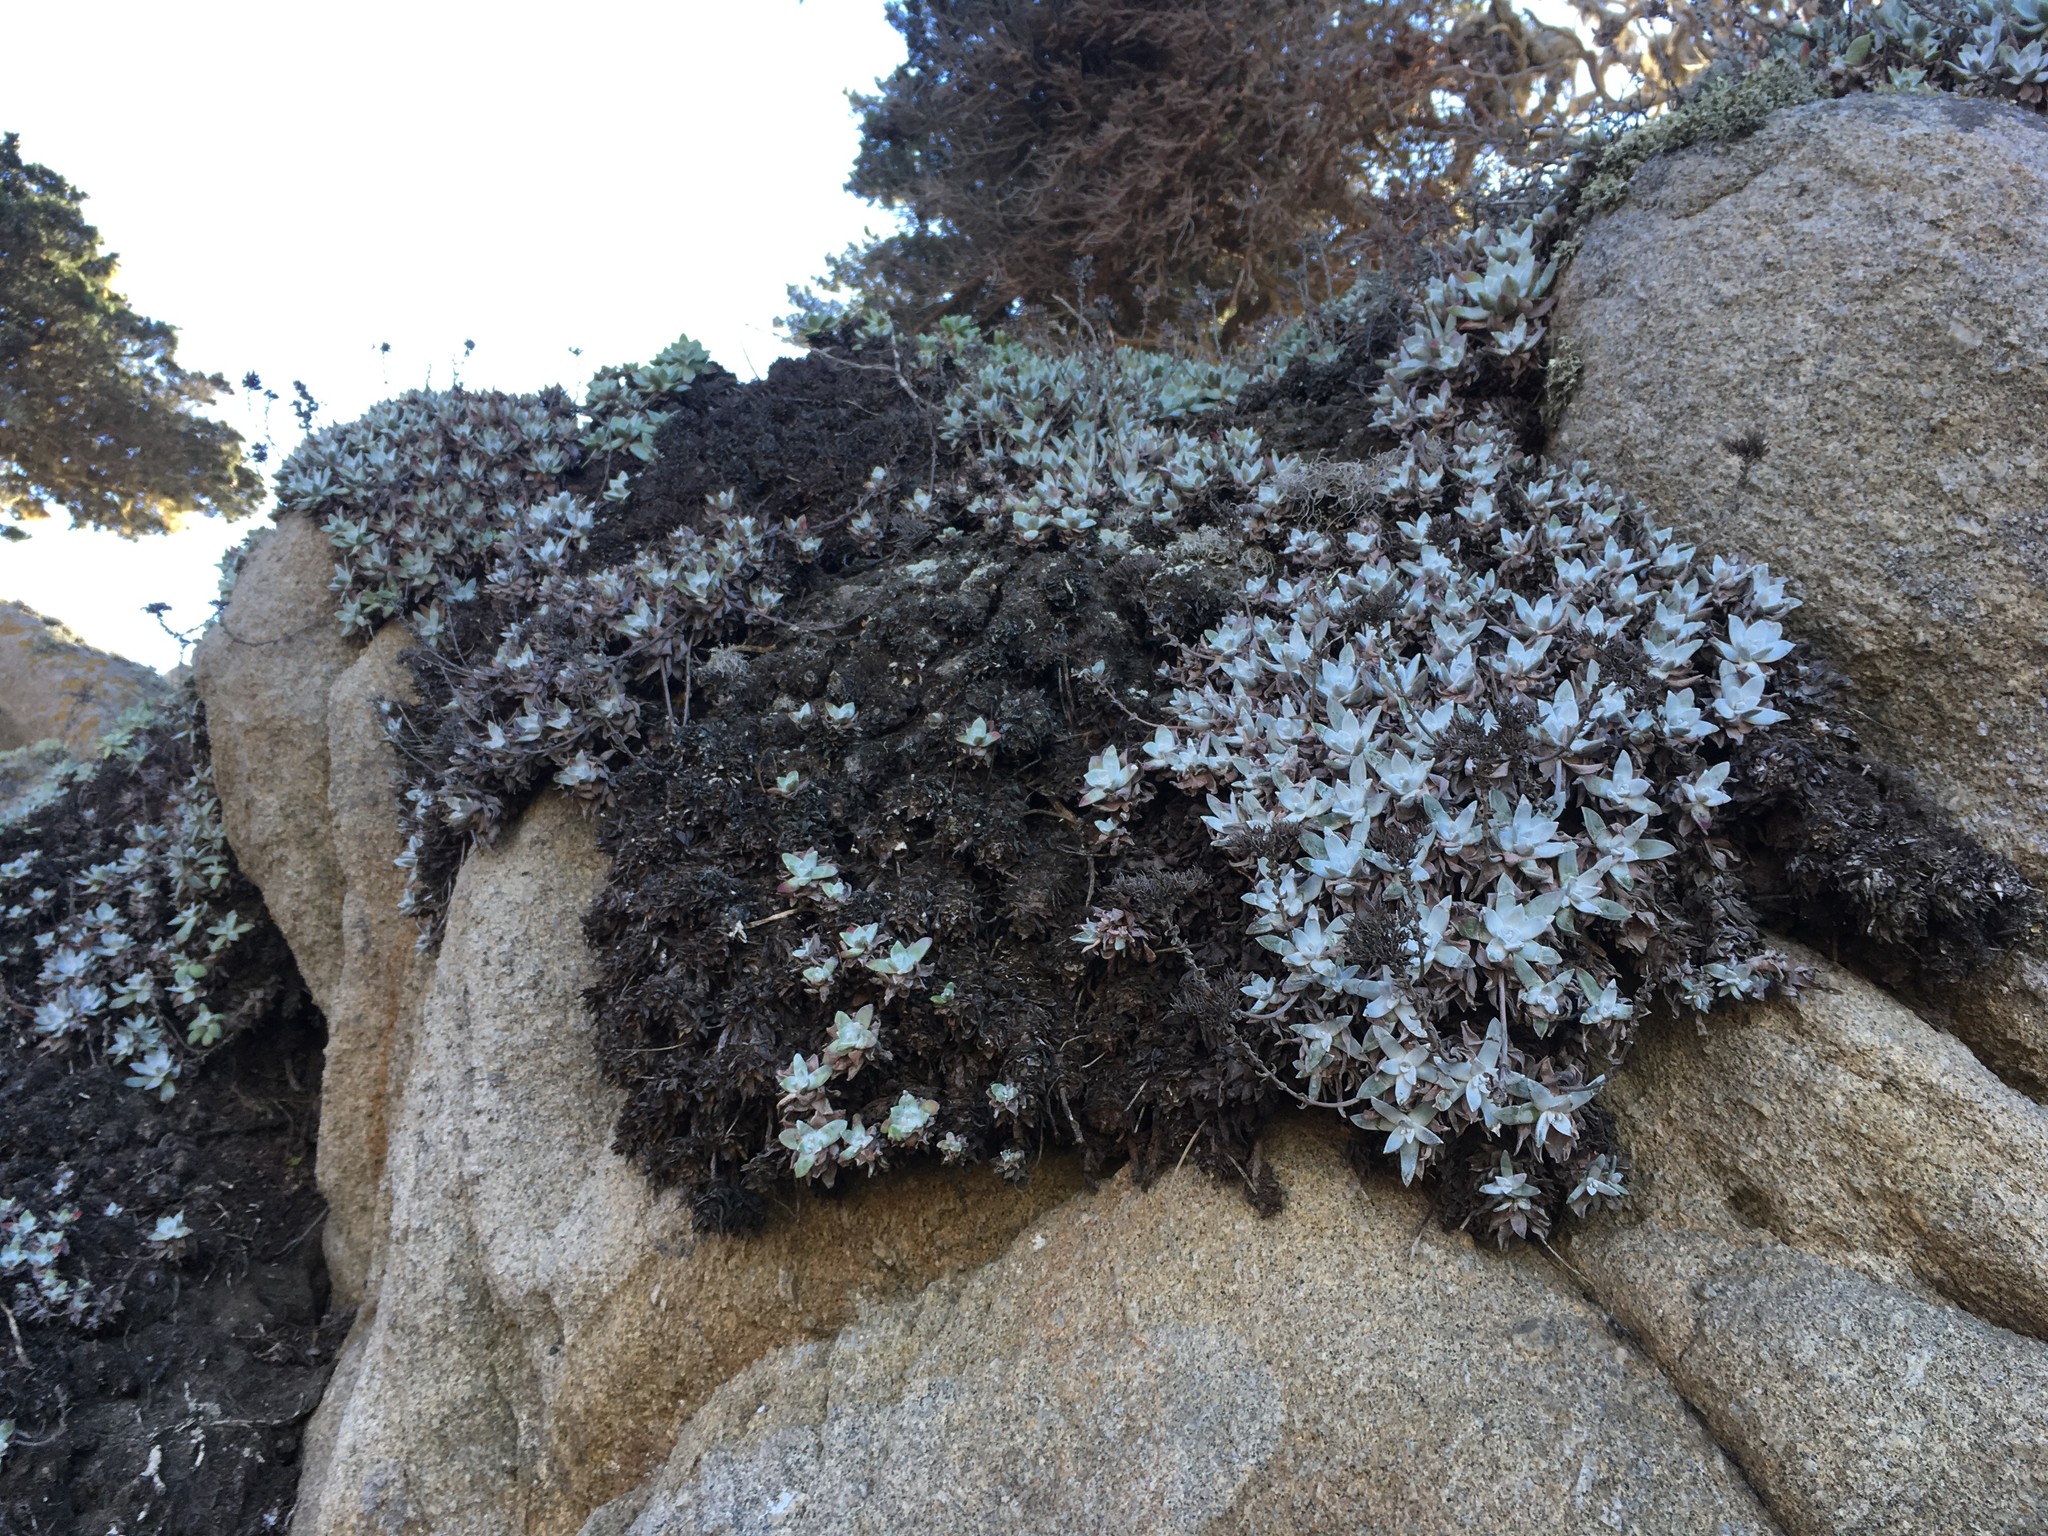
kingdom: Plantae
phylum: Tracheophyta
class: Magnoliopsida
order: Saxifragales
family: Crassulaceae
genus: Dudleya
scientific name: Dudleya farinosa
